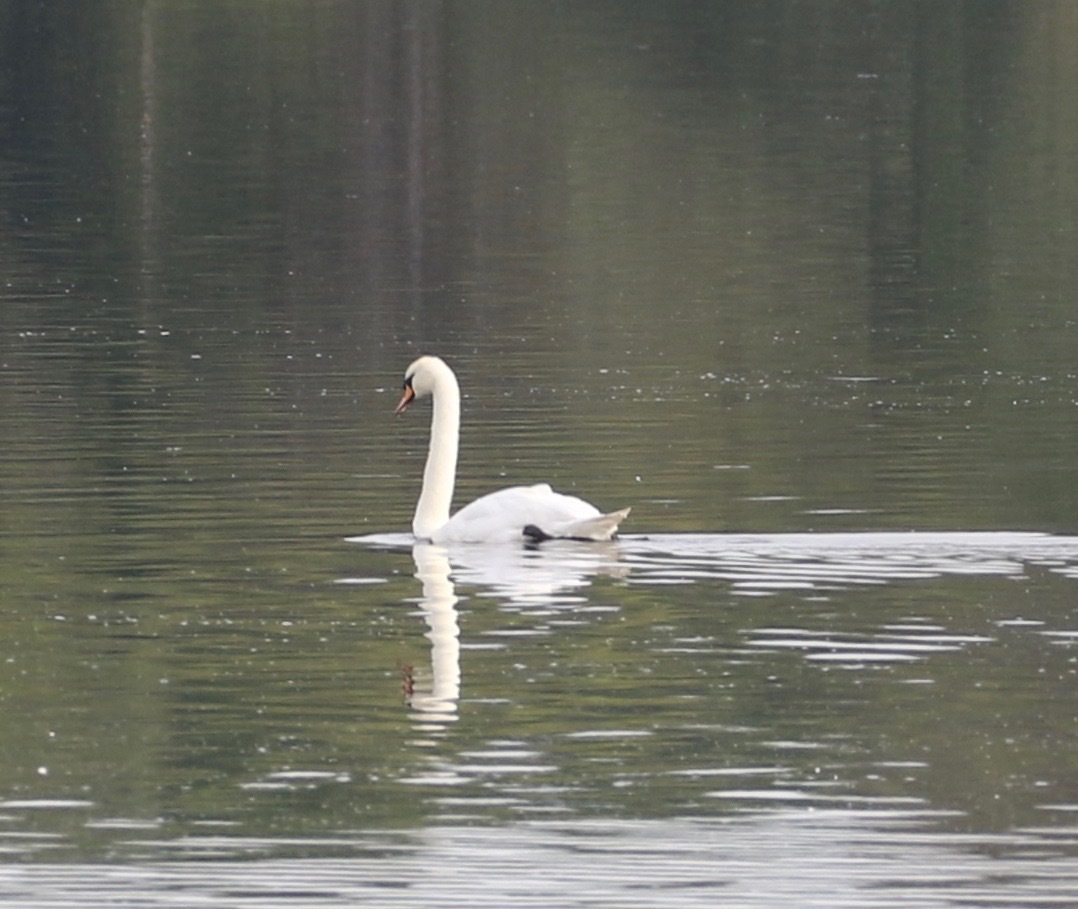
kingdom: Animalia
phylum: Chordata
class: Aves
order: Anseriformes
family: Anatidae
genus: Cygnus
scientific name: Cygnus olor
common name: Mute swan
